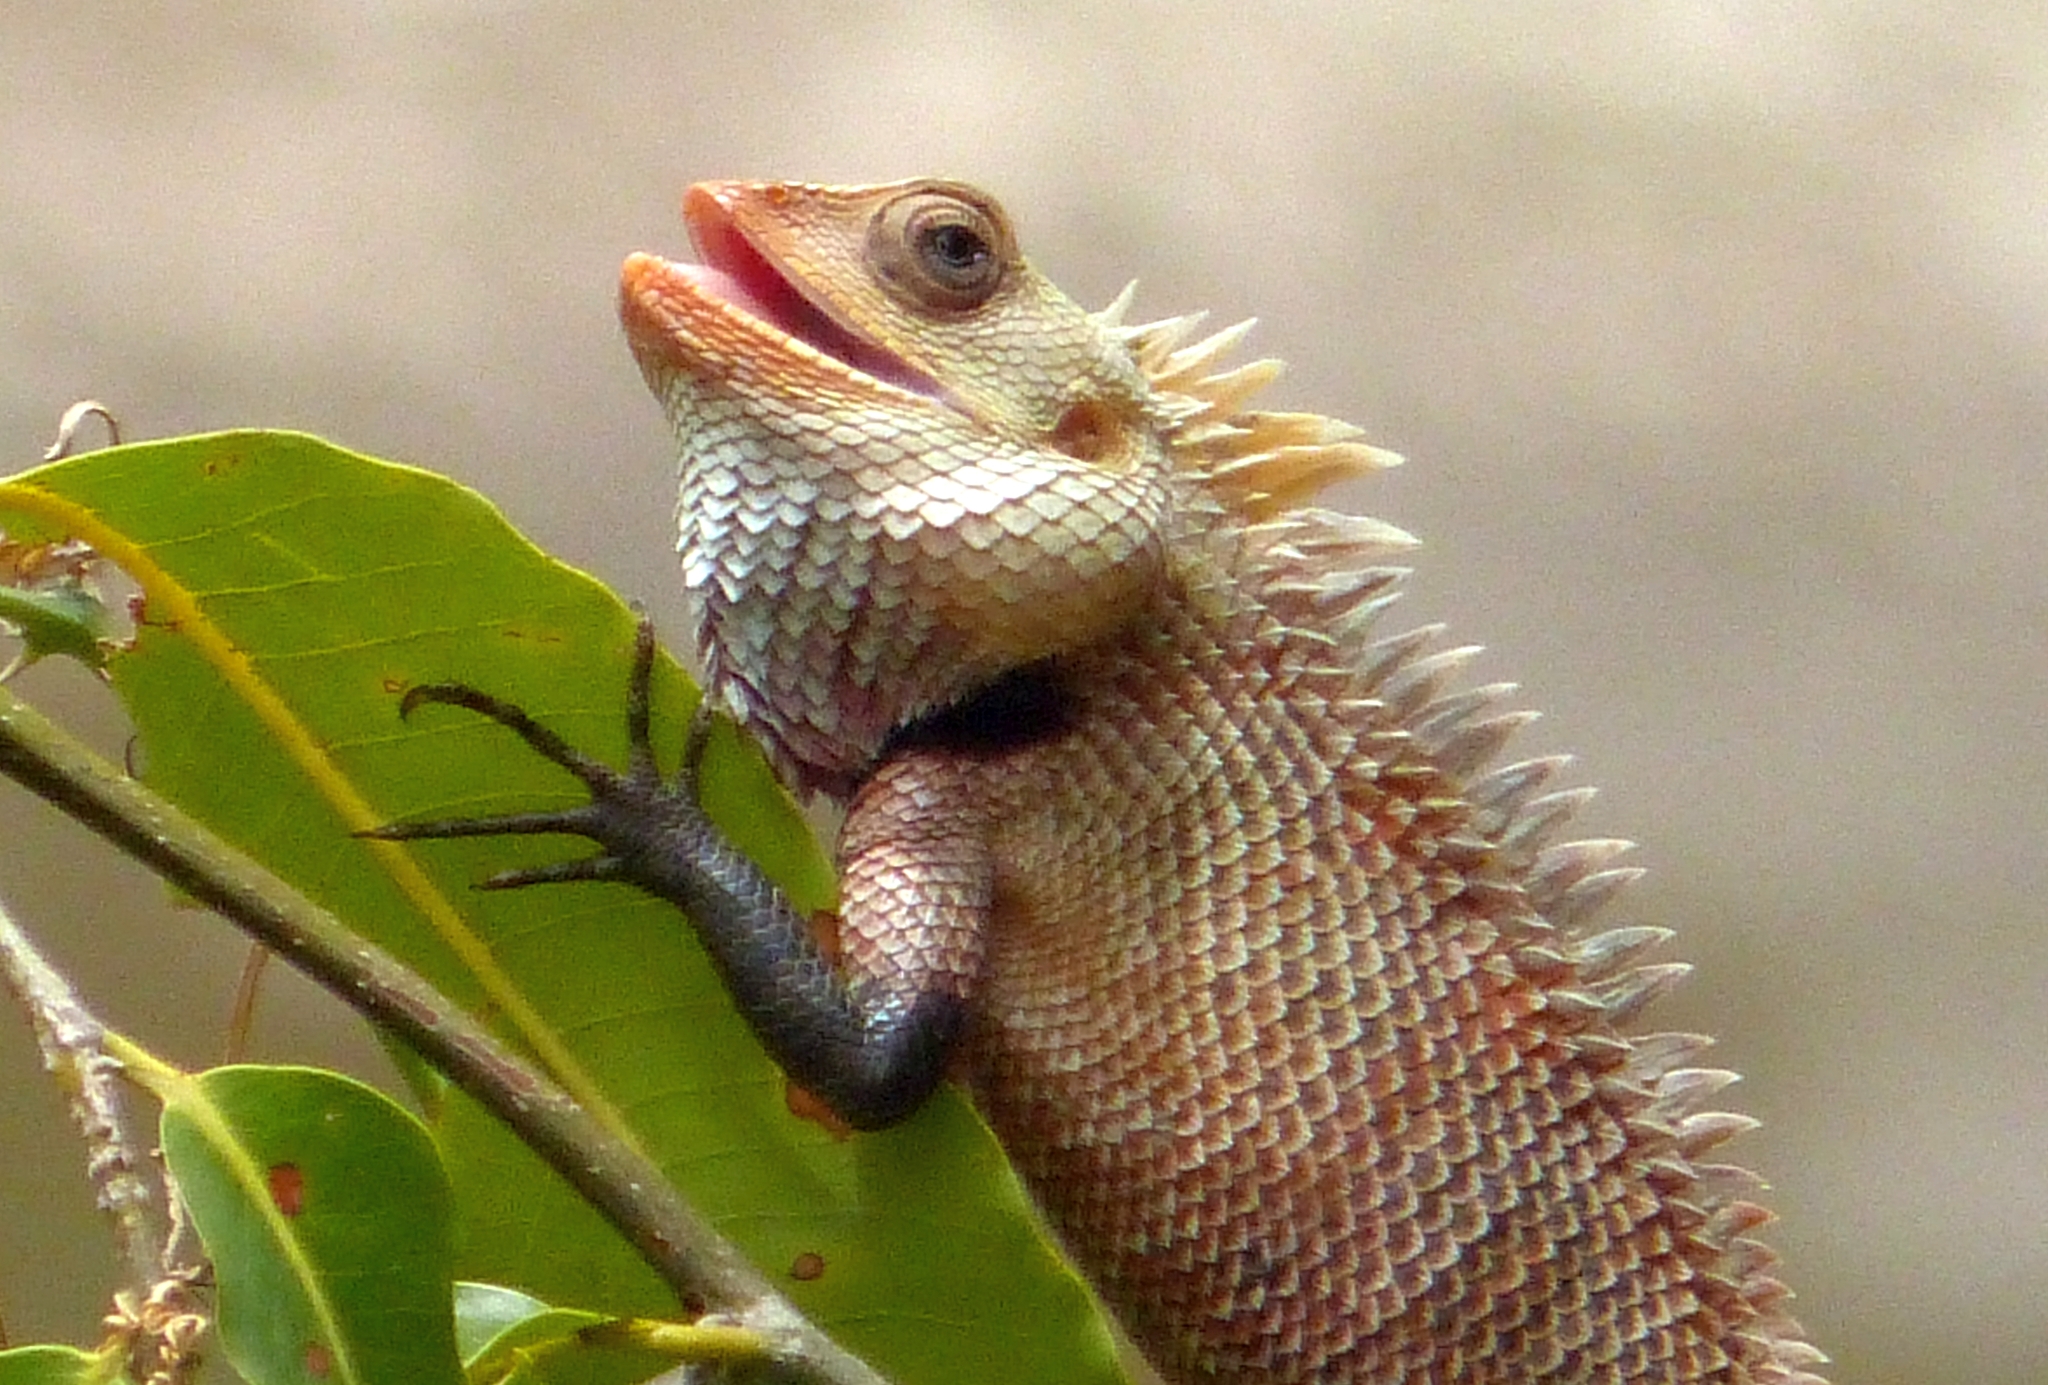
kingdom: Animalia
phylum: Chordata
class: Squamata
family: Agamidae
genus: Calotes
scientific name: Calotes versicolor
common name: Oriental garden lizard
